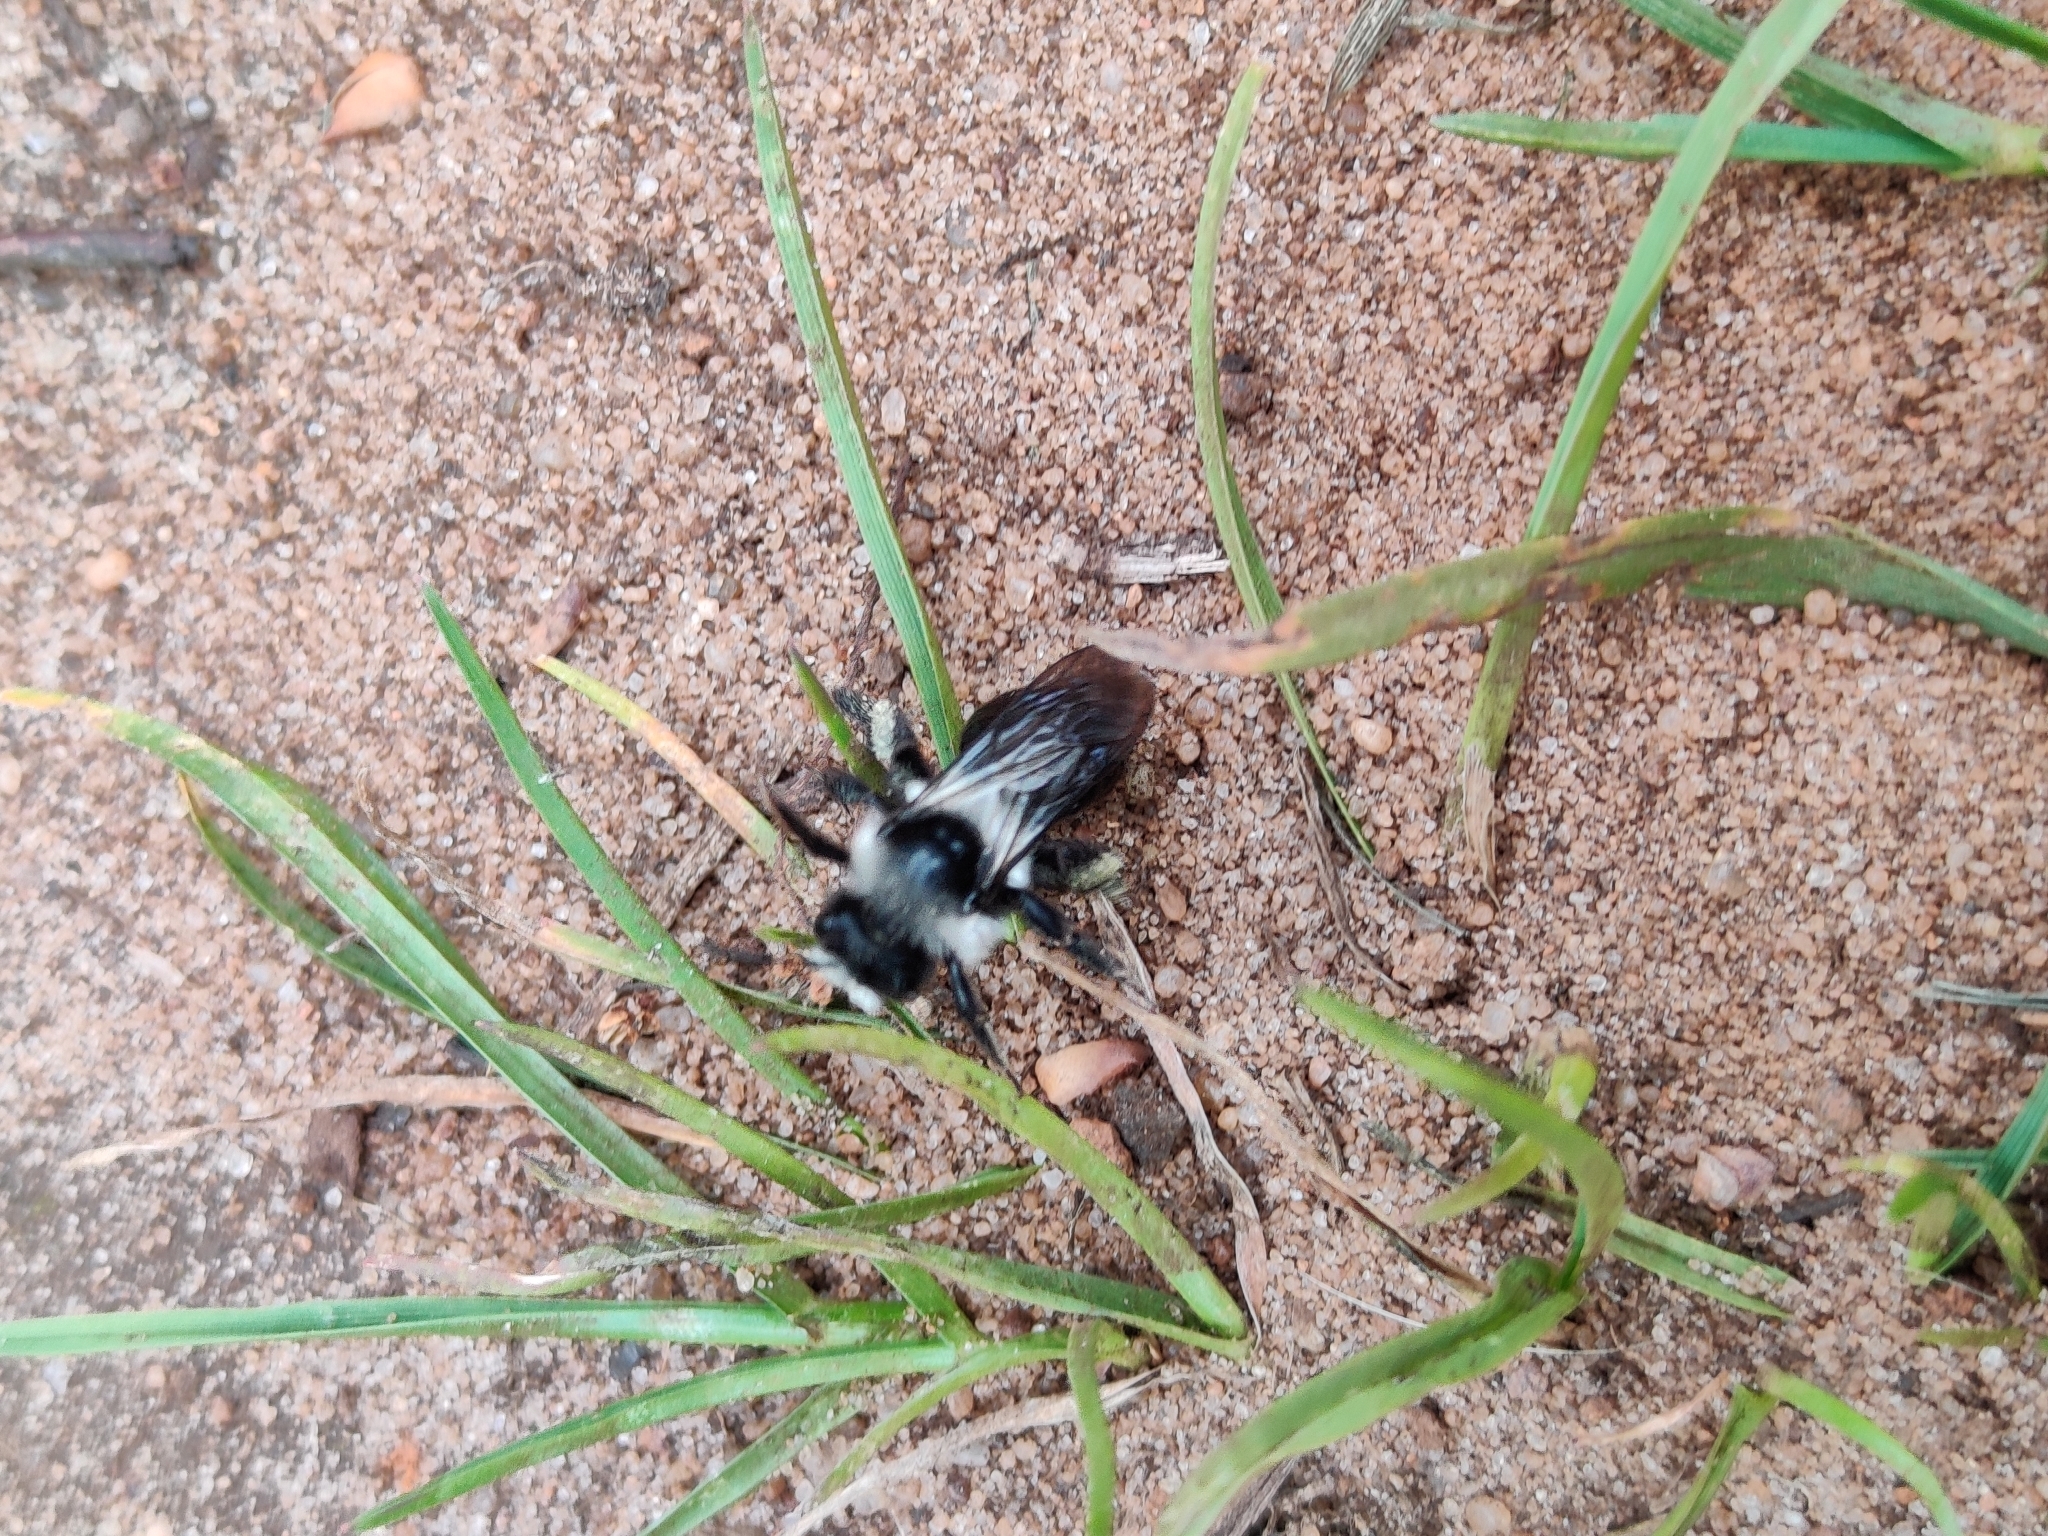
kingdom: Animalia
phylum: Arthropoda
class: Insecta
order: Hymenoptera
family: Andrenidae
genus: Andrena
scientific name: Andrena cineraria
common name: Ashy mining bee
